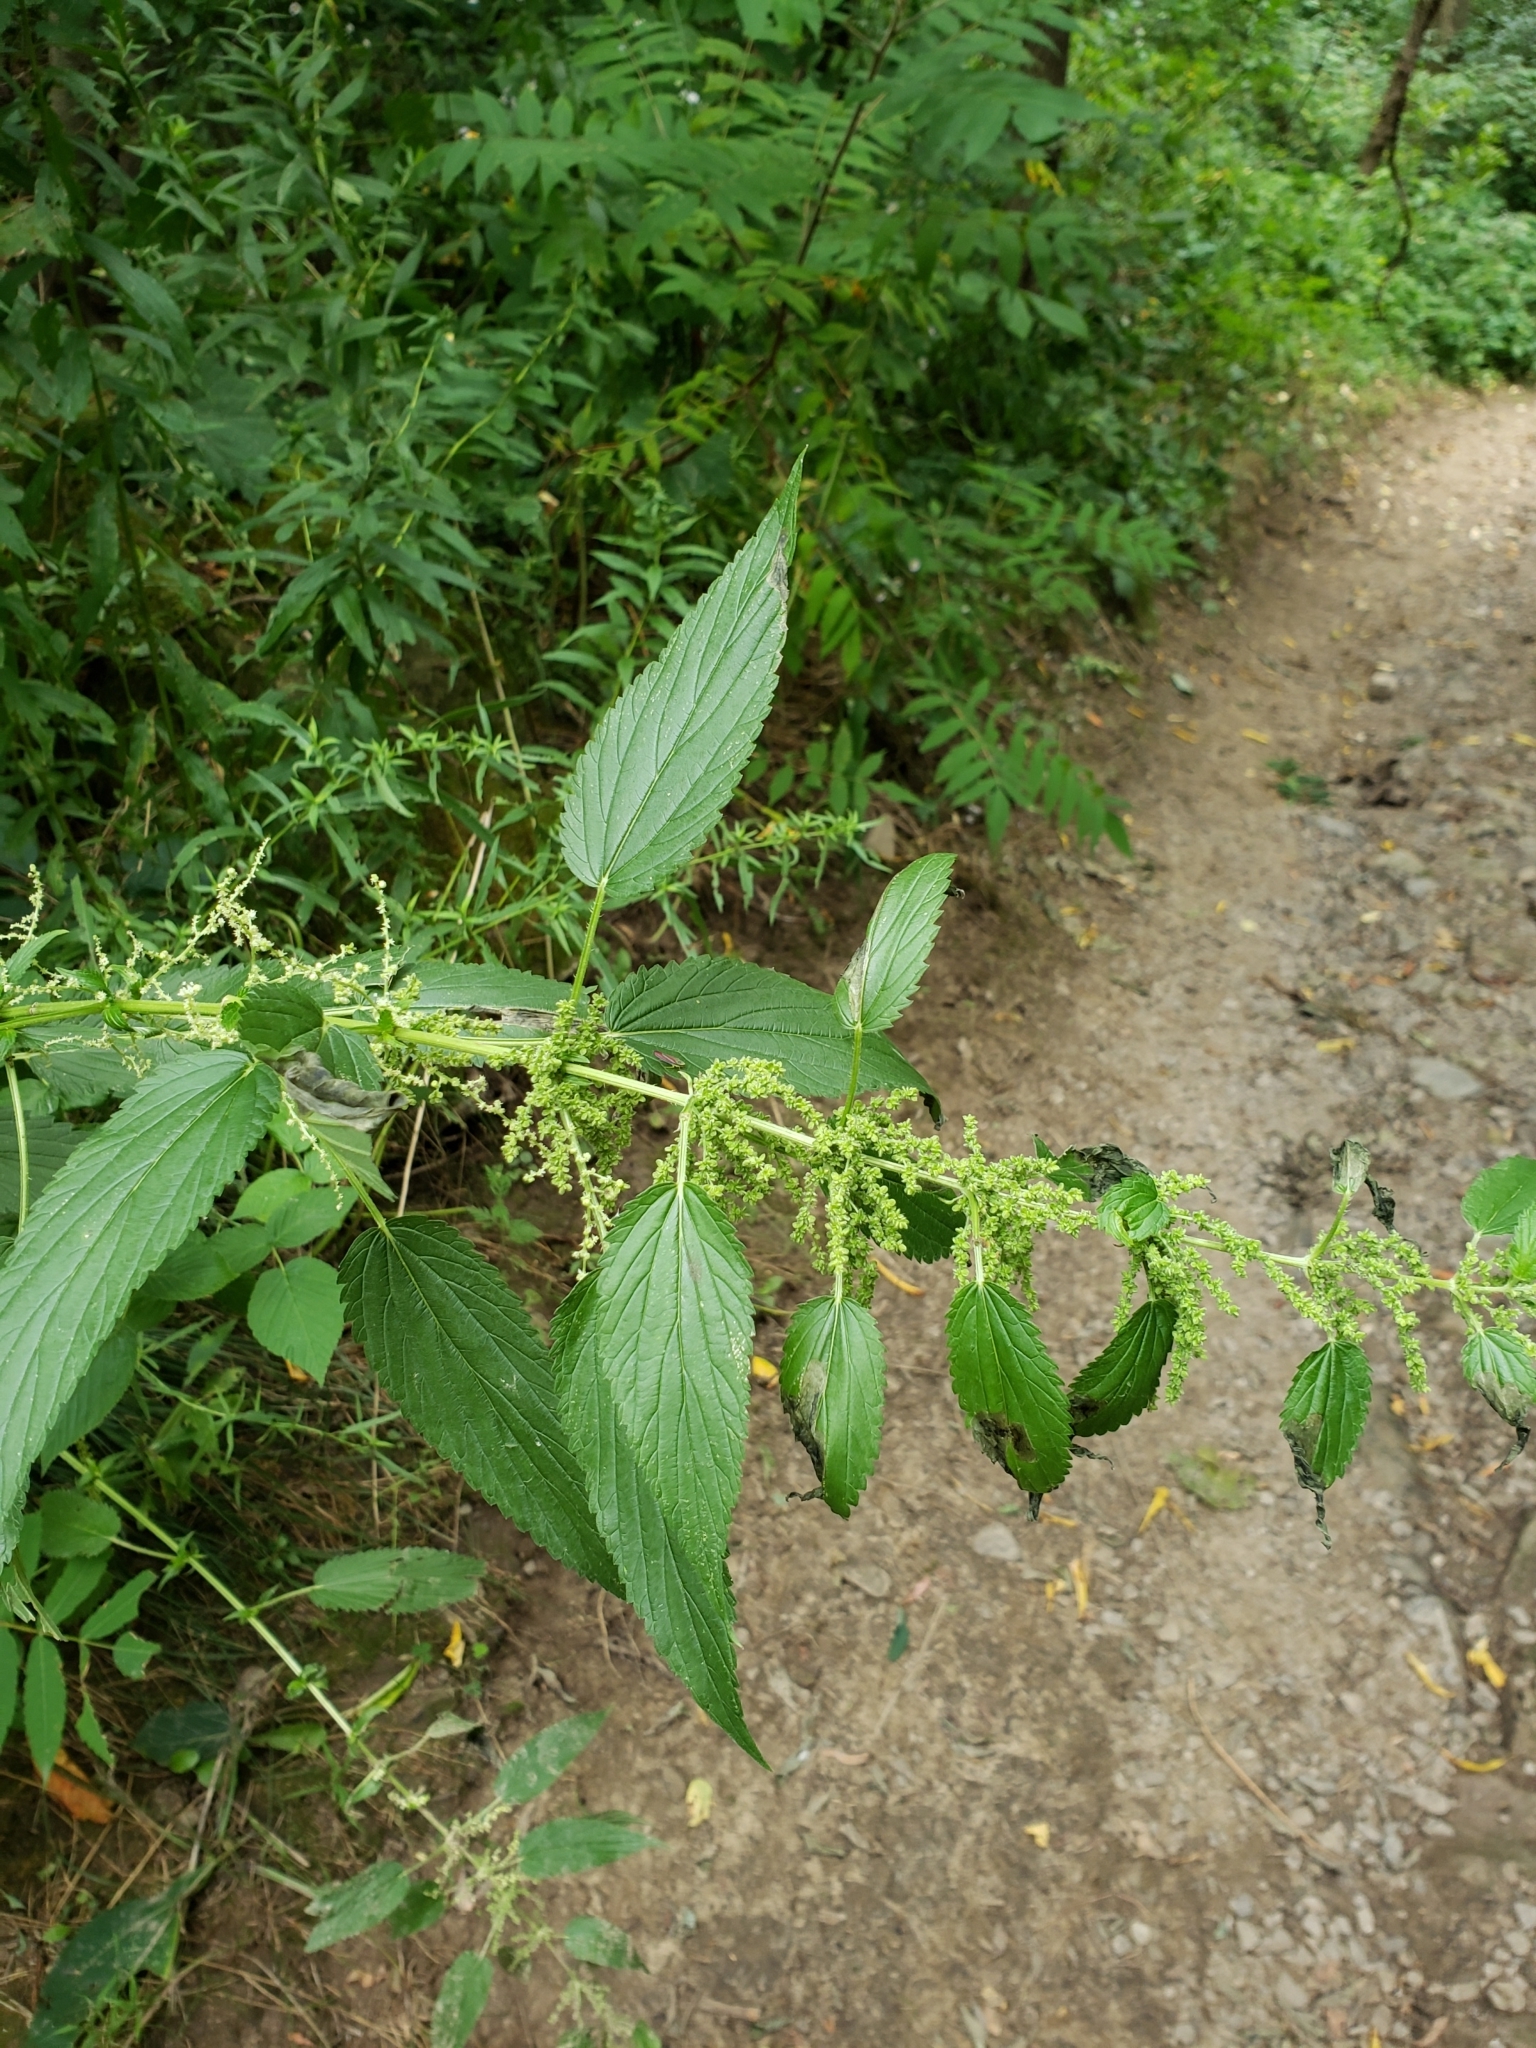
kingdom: Plantae
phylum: Tracheophyta
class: Magnoliopsida
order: Rosales
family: Urticaceae
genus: Urtica
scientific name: Urtica gracilis
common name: Slender stinging nettle
